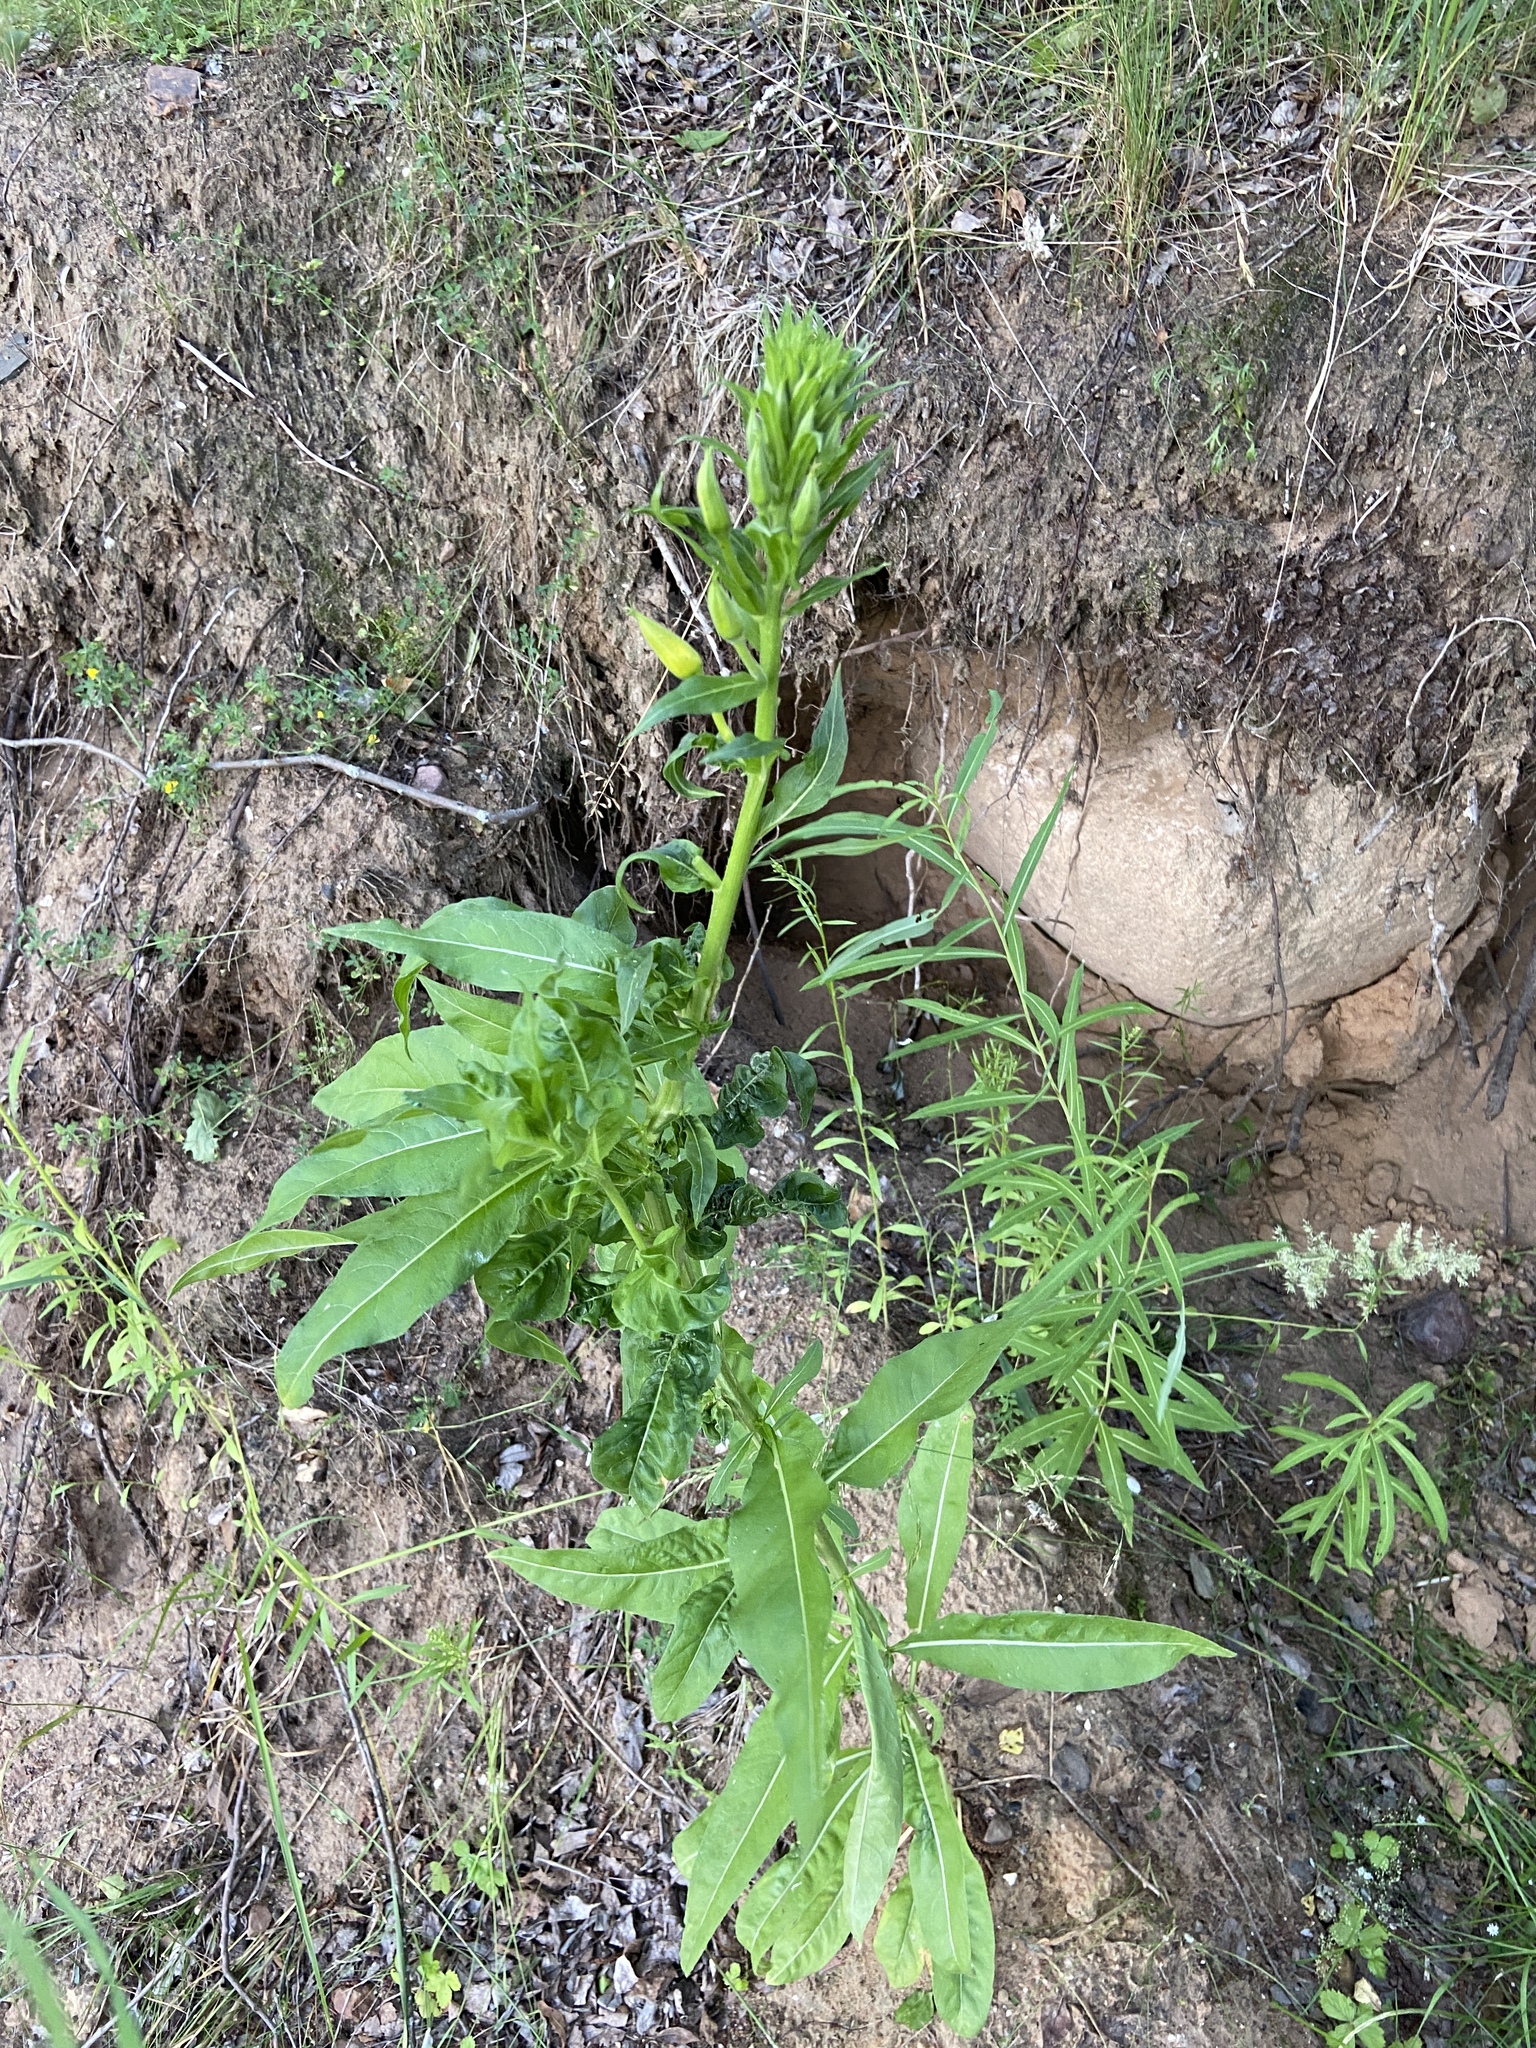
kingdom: Plantae
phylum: Tracheophyta
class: Magnoliopsida
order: Myrtales
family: Onagraceae
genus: Chamaenerion
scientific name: Chamaenerion angustifolium
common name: Fireweed
